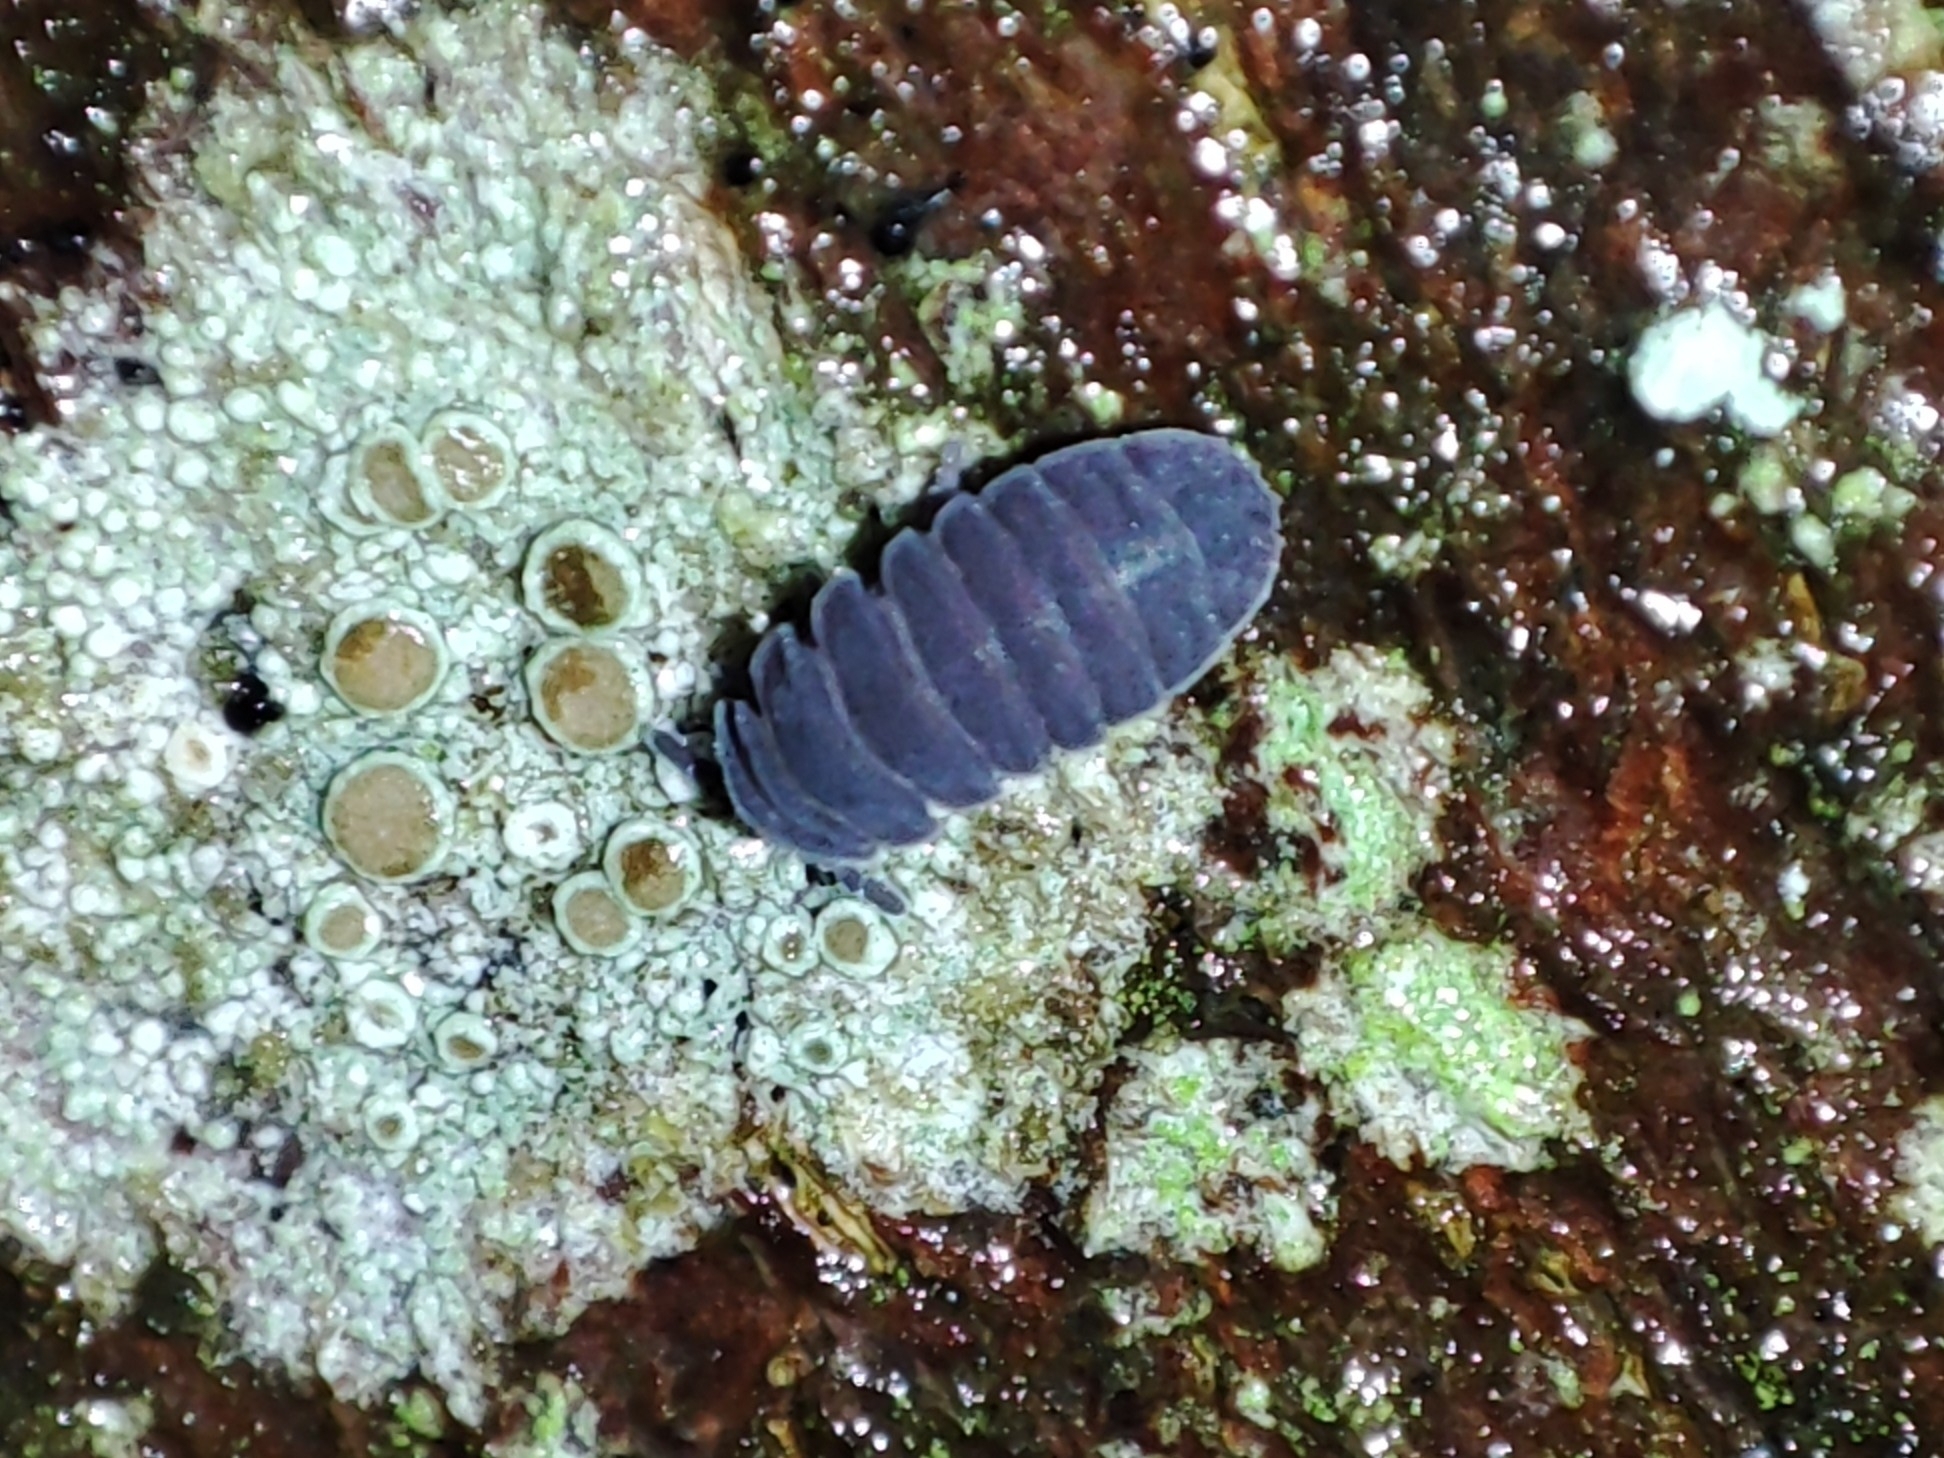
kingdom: Animalia
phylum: Arthropoda
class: Collembola
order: Poduromorpha
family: Onychiuridae
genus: Tetrodontophora
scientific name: Tetrodontophora bielanensis
